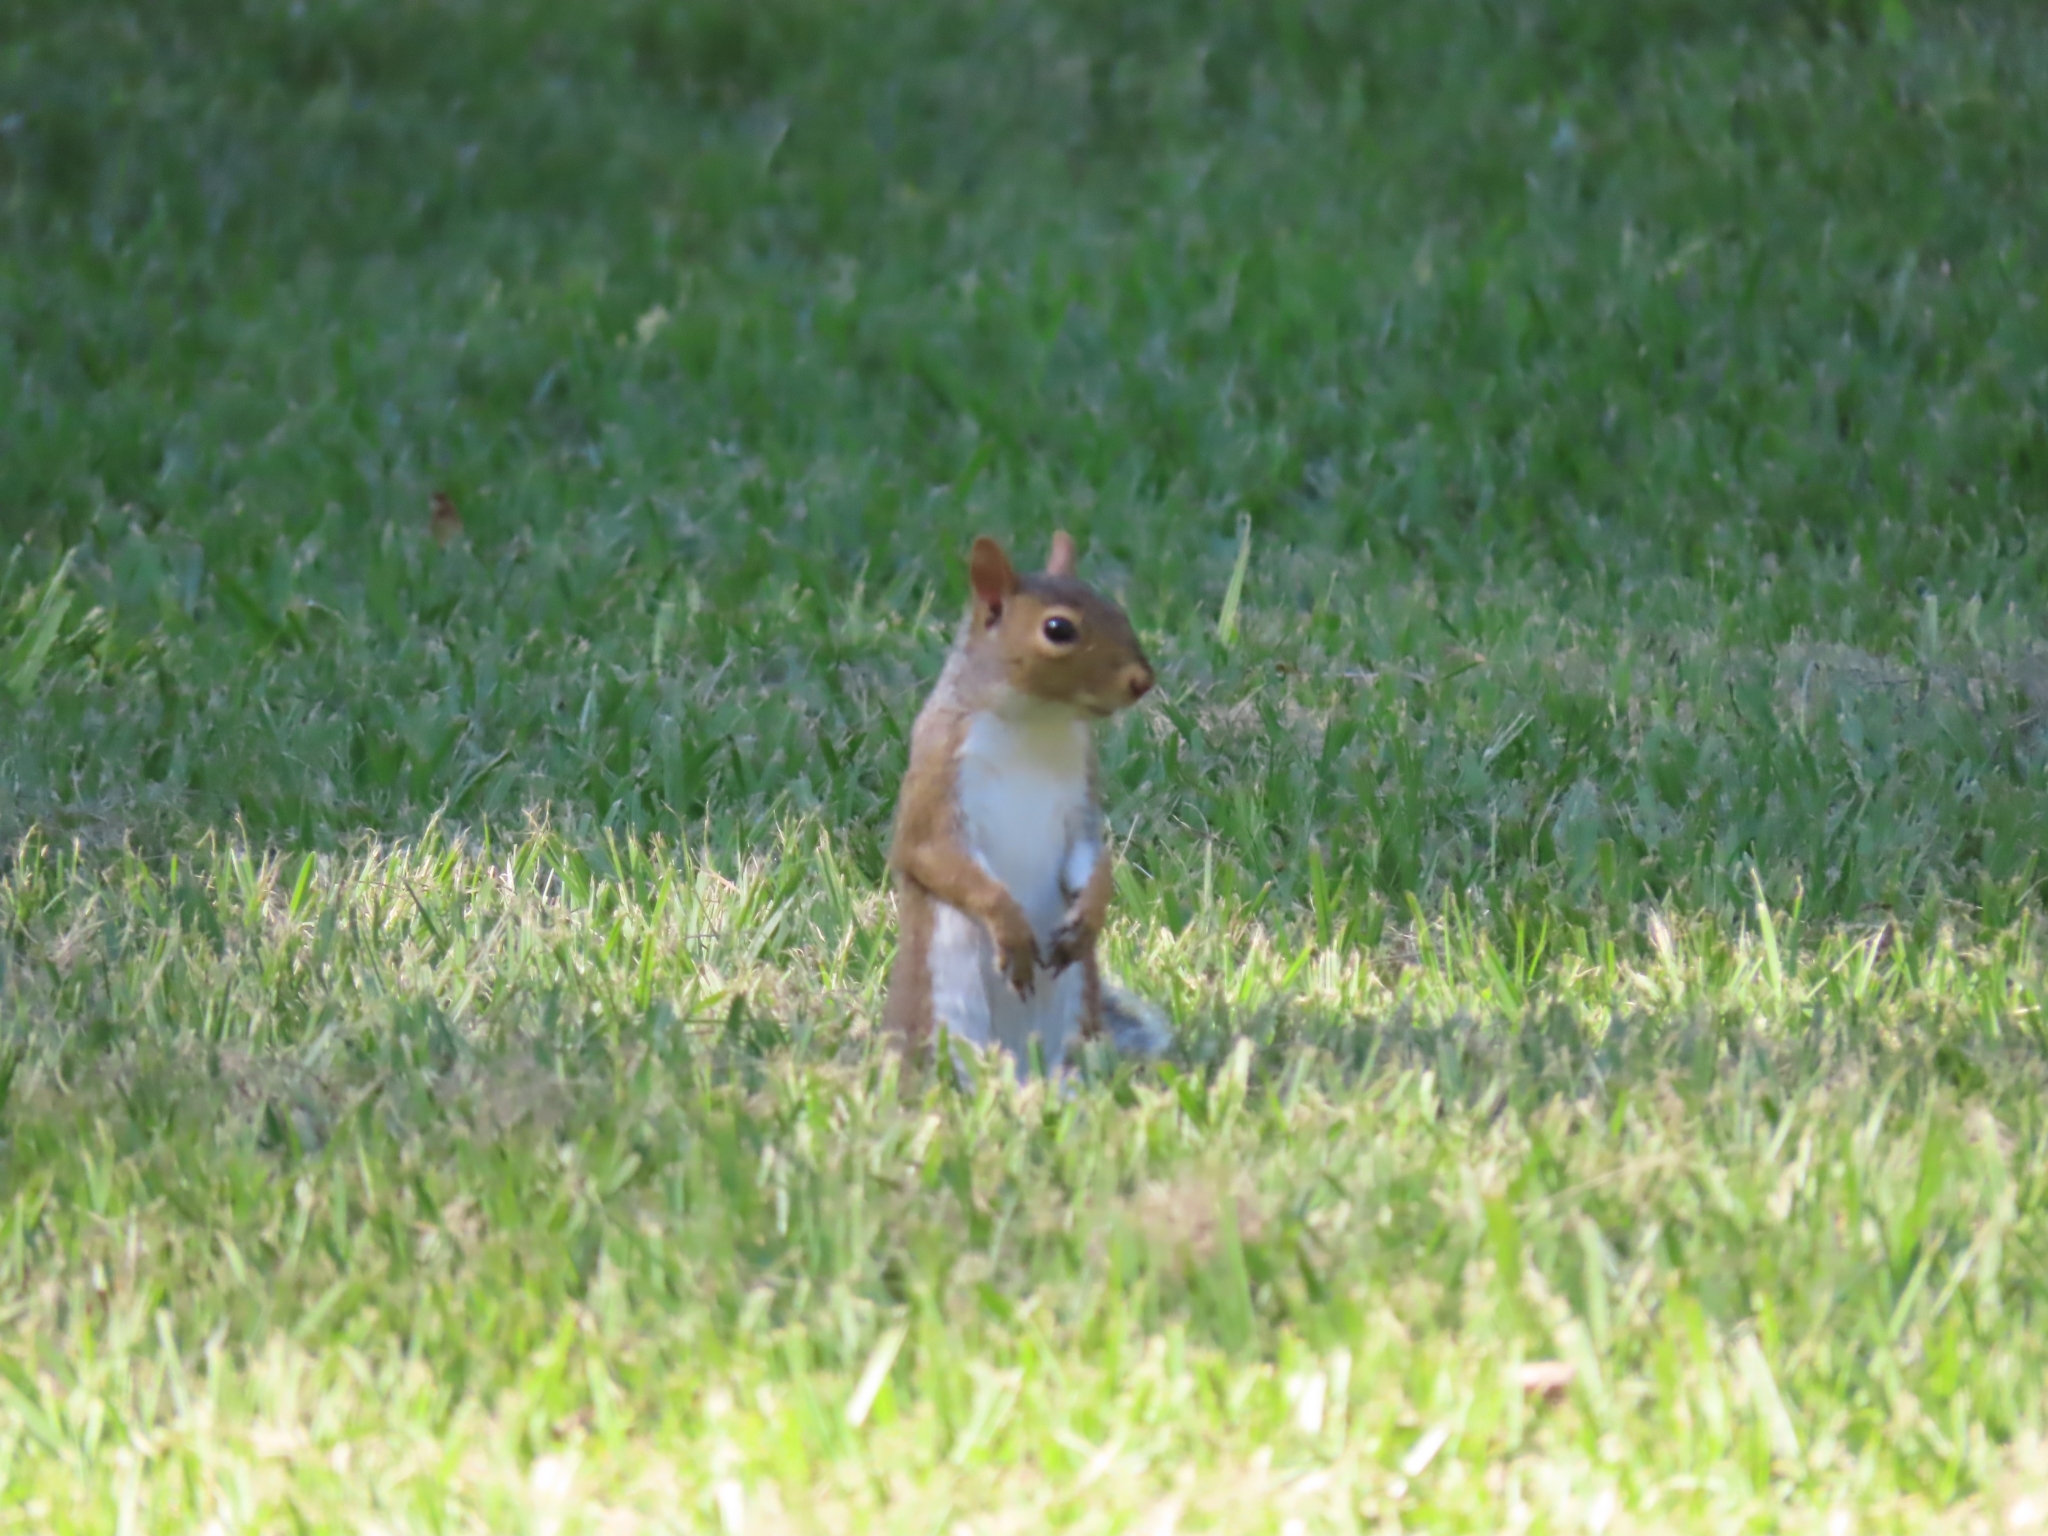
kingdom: Animalia
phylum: Chordata
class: Mammalia
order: Rodentia
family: Sciuridae
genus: Sciurus
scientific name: Sciurus carolinensis
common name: Eastern gray squirrel
